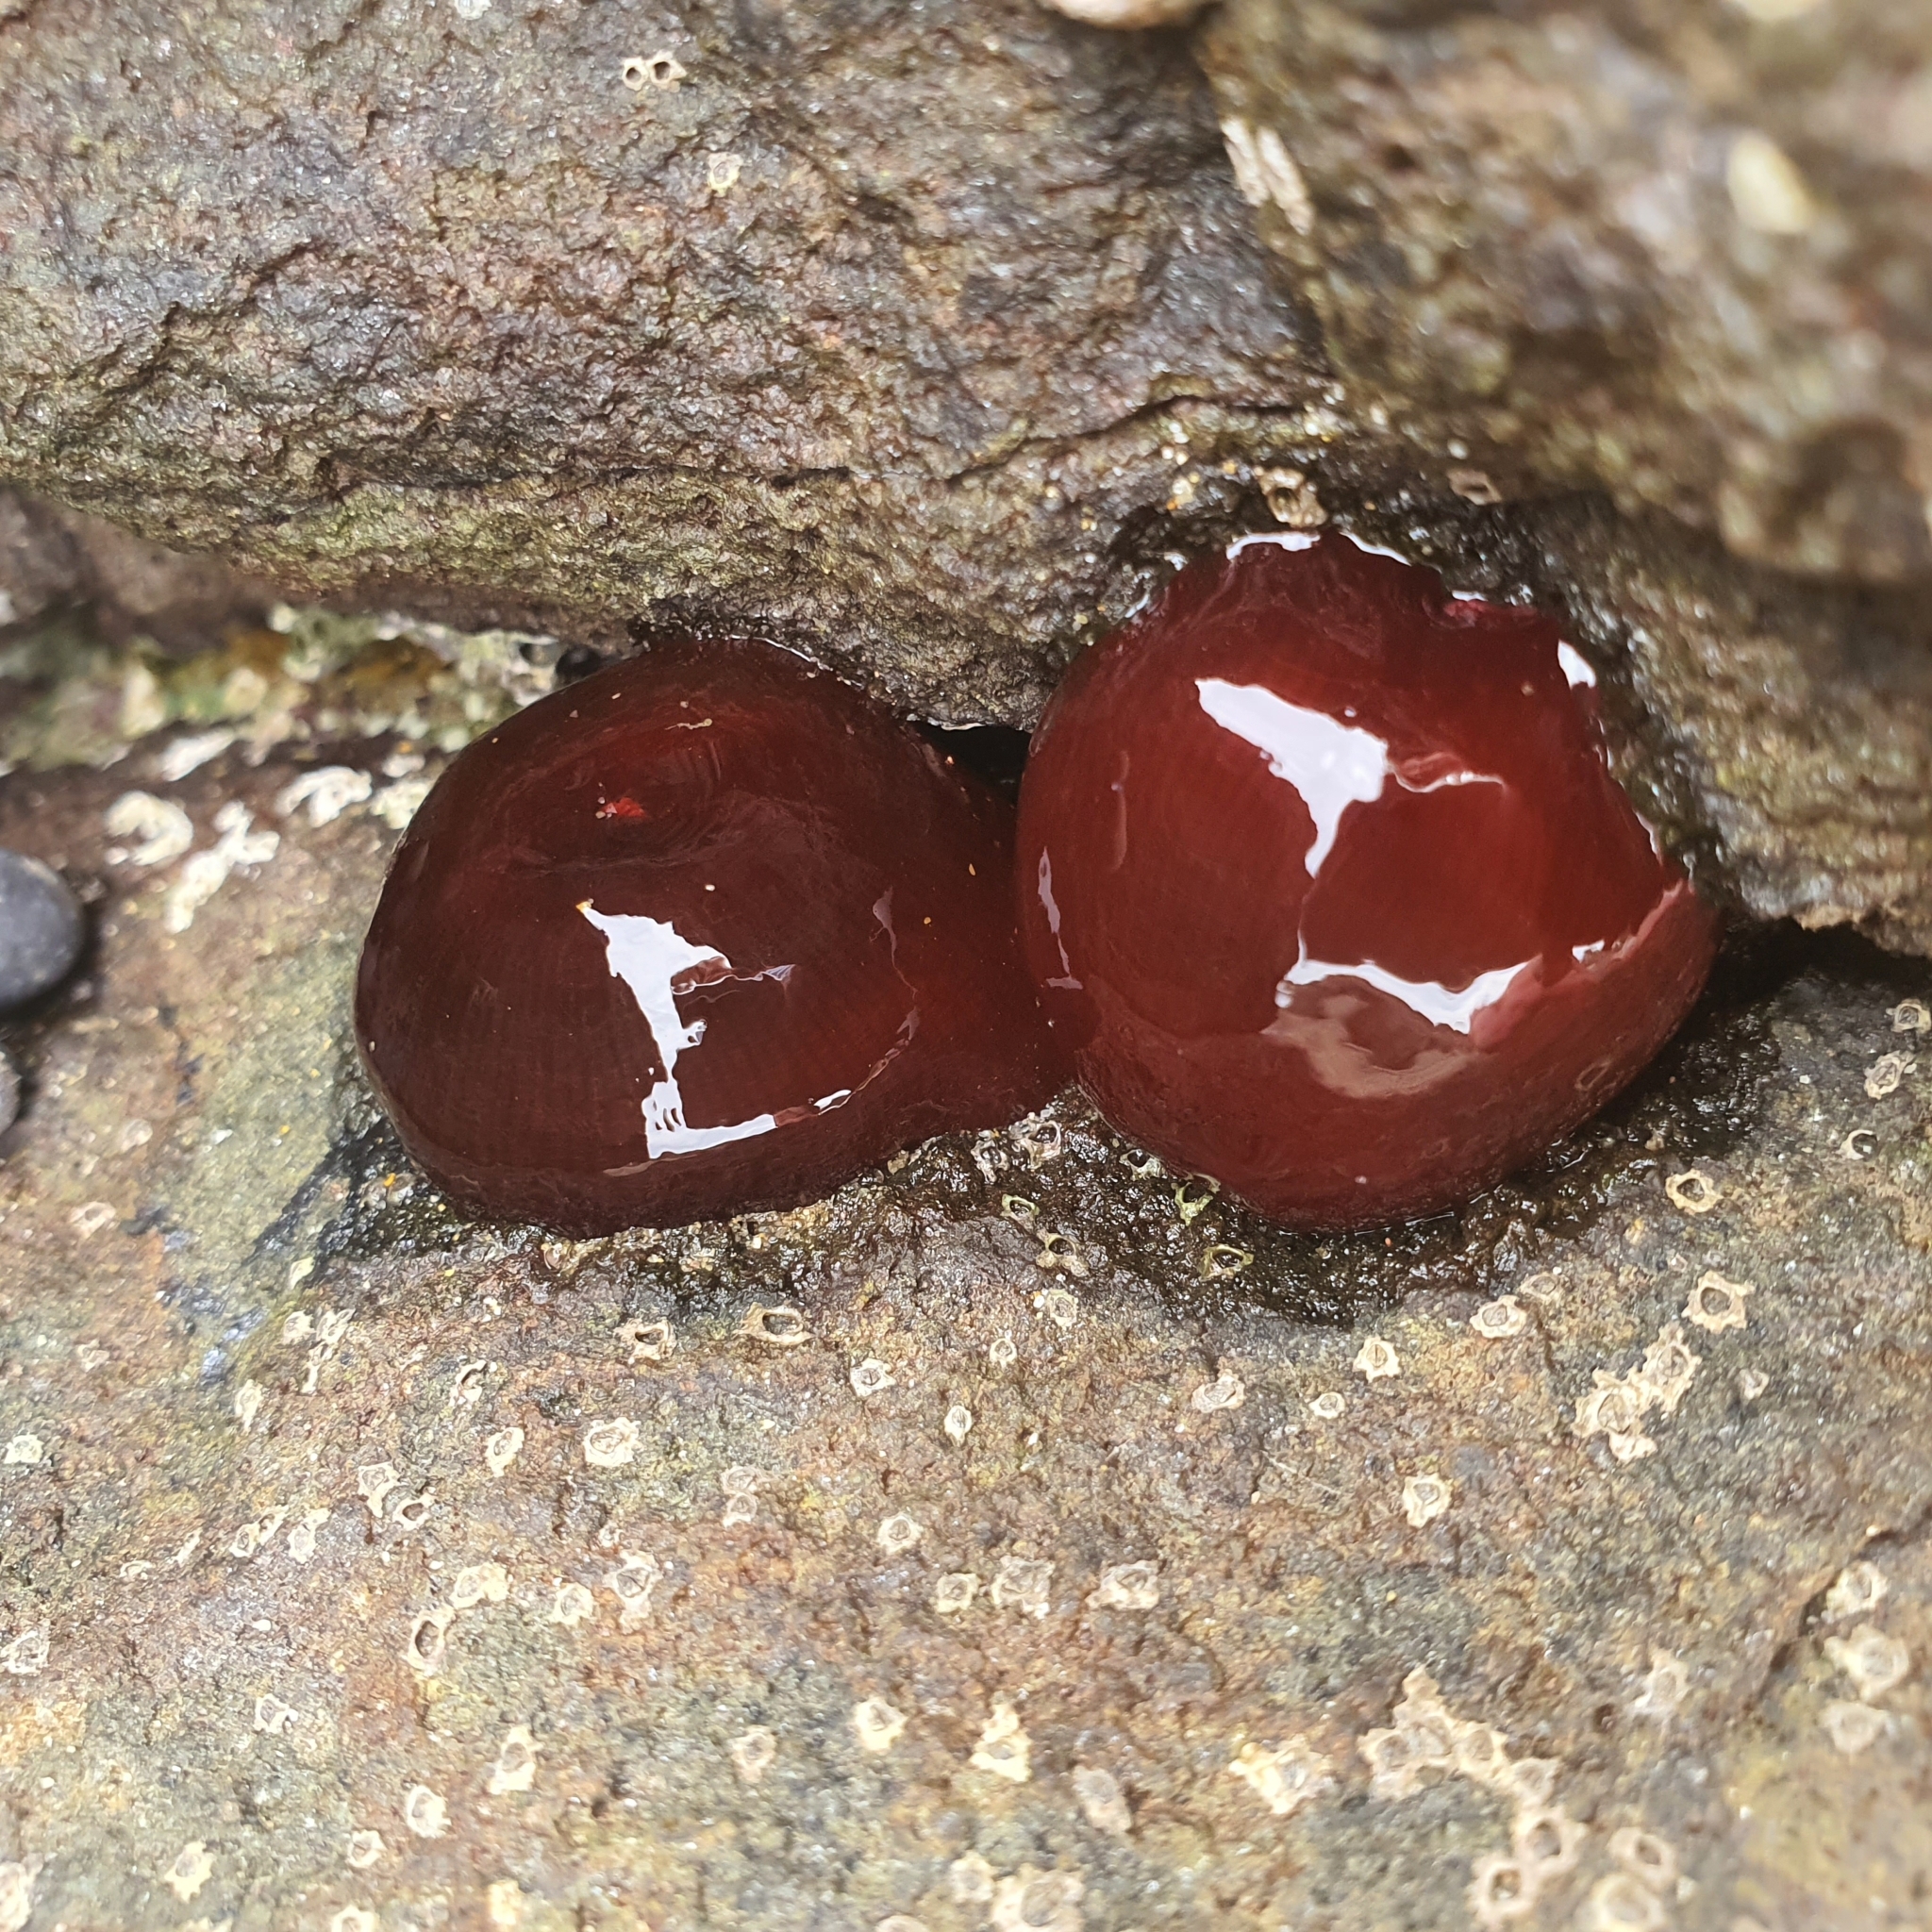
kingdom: Animalia
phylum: Cnidaria
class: Anthozoa
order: Actiniaria
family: Actiniidae
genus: Actinia
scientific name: Actinia tenebrosa
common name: Waratah anemone
